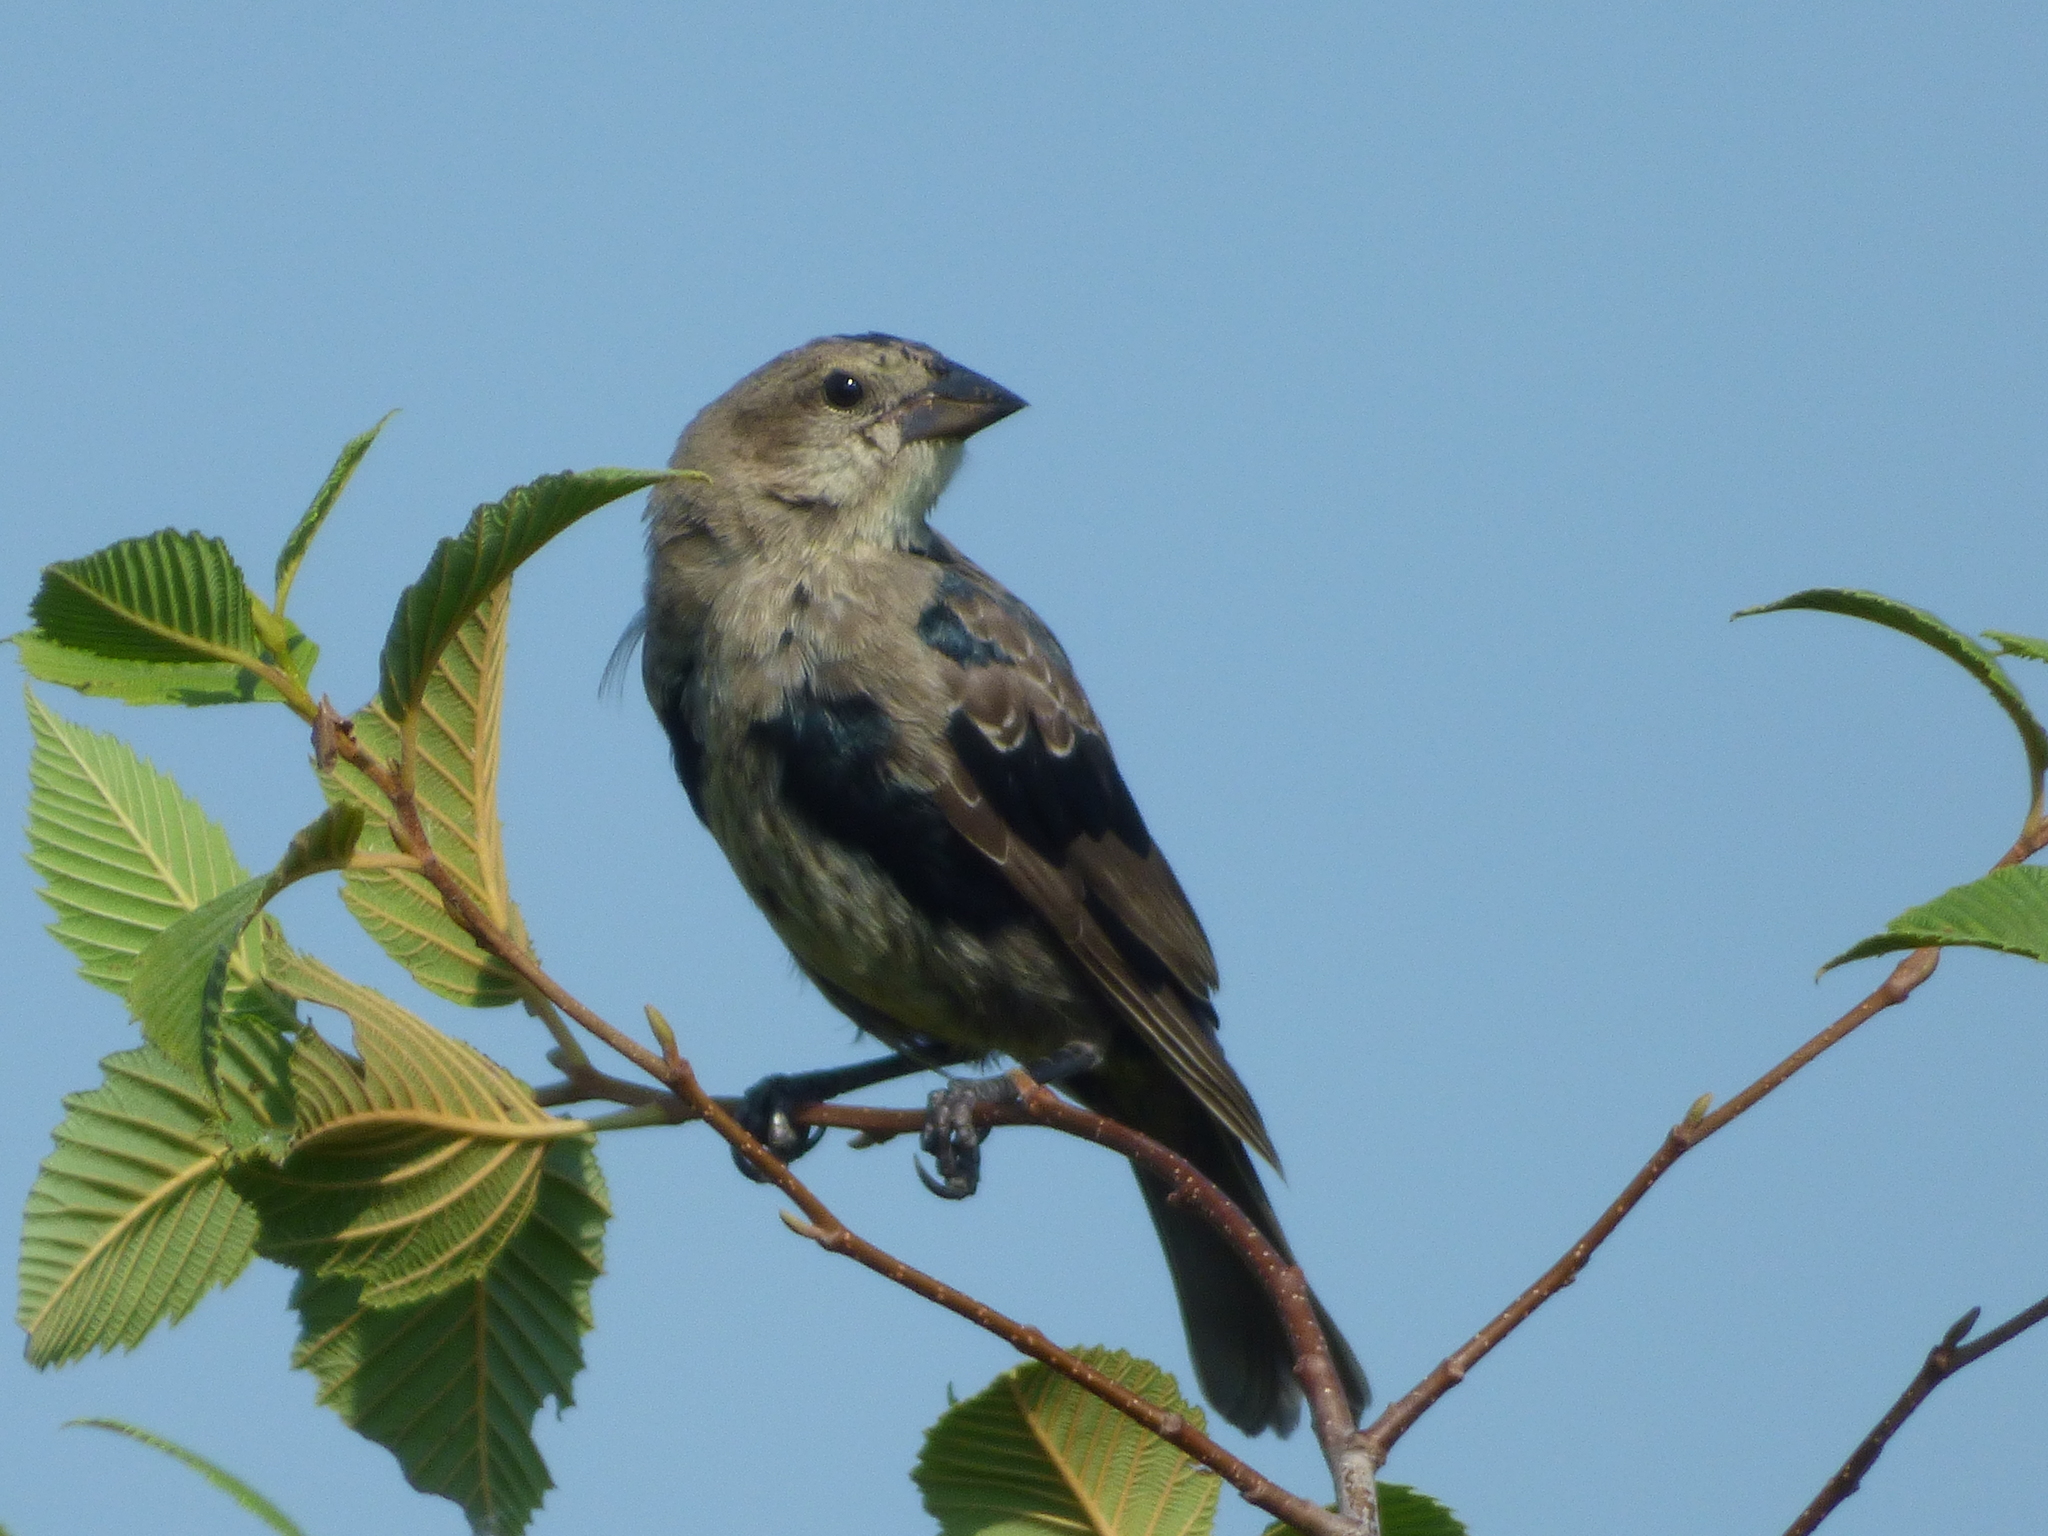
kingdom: Animalia
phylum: Chordata
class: Aves
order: Passeriformes
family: Icteridae
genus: Molothrus
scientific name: Molothrus ater
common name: Brown-headed cowbird
